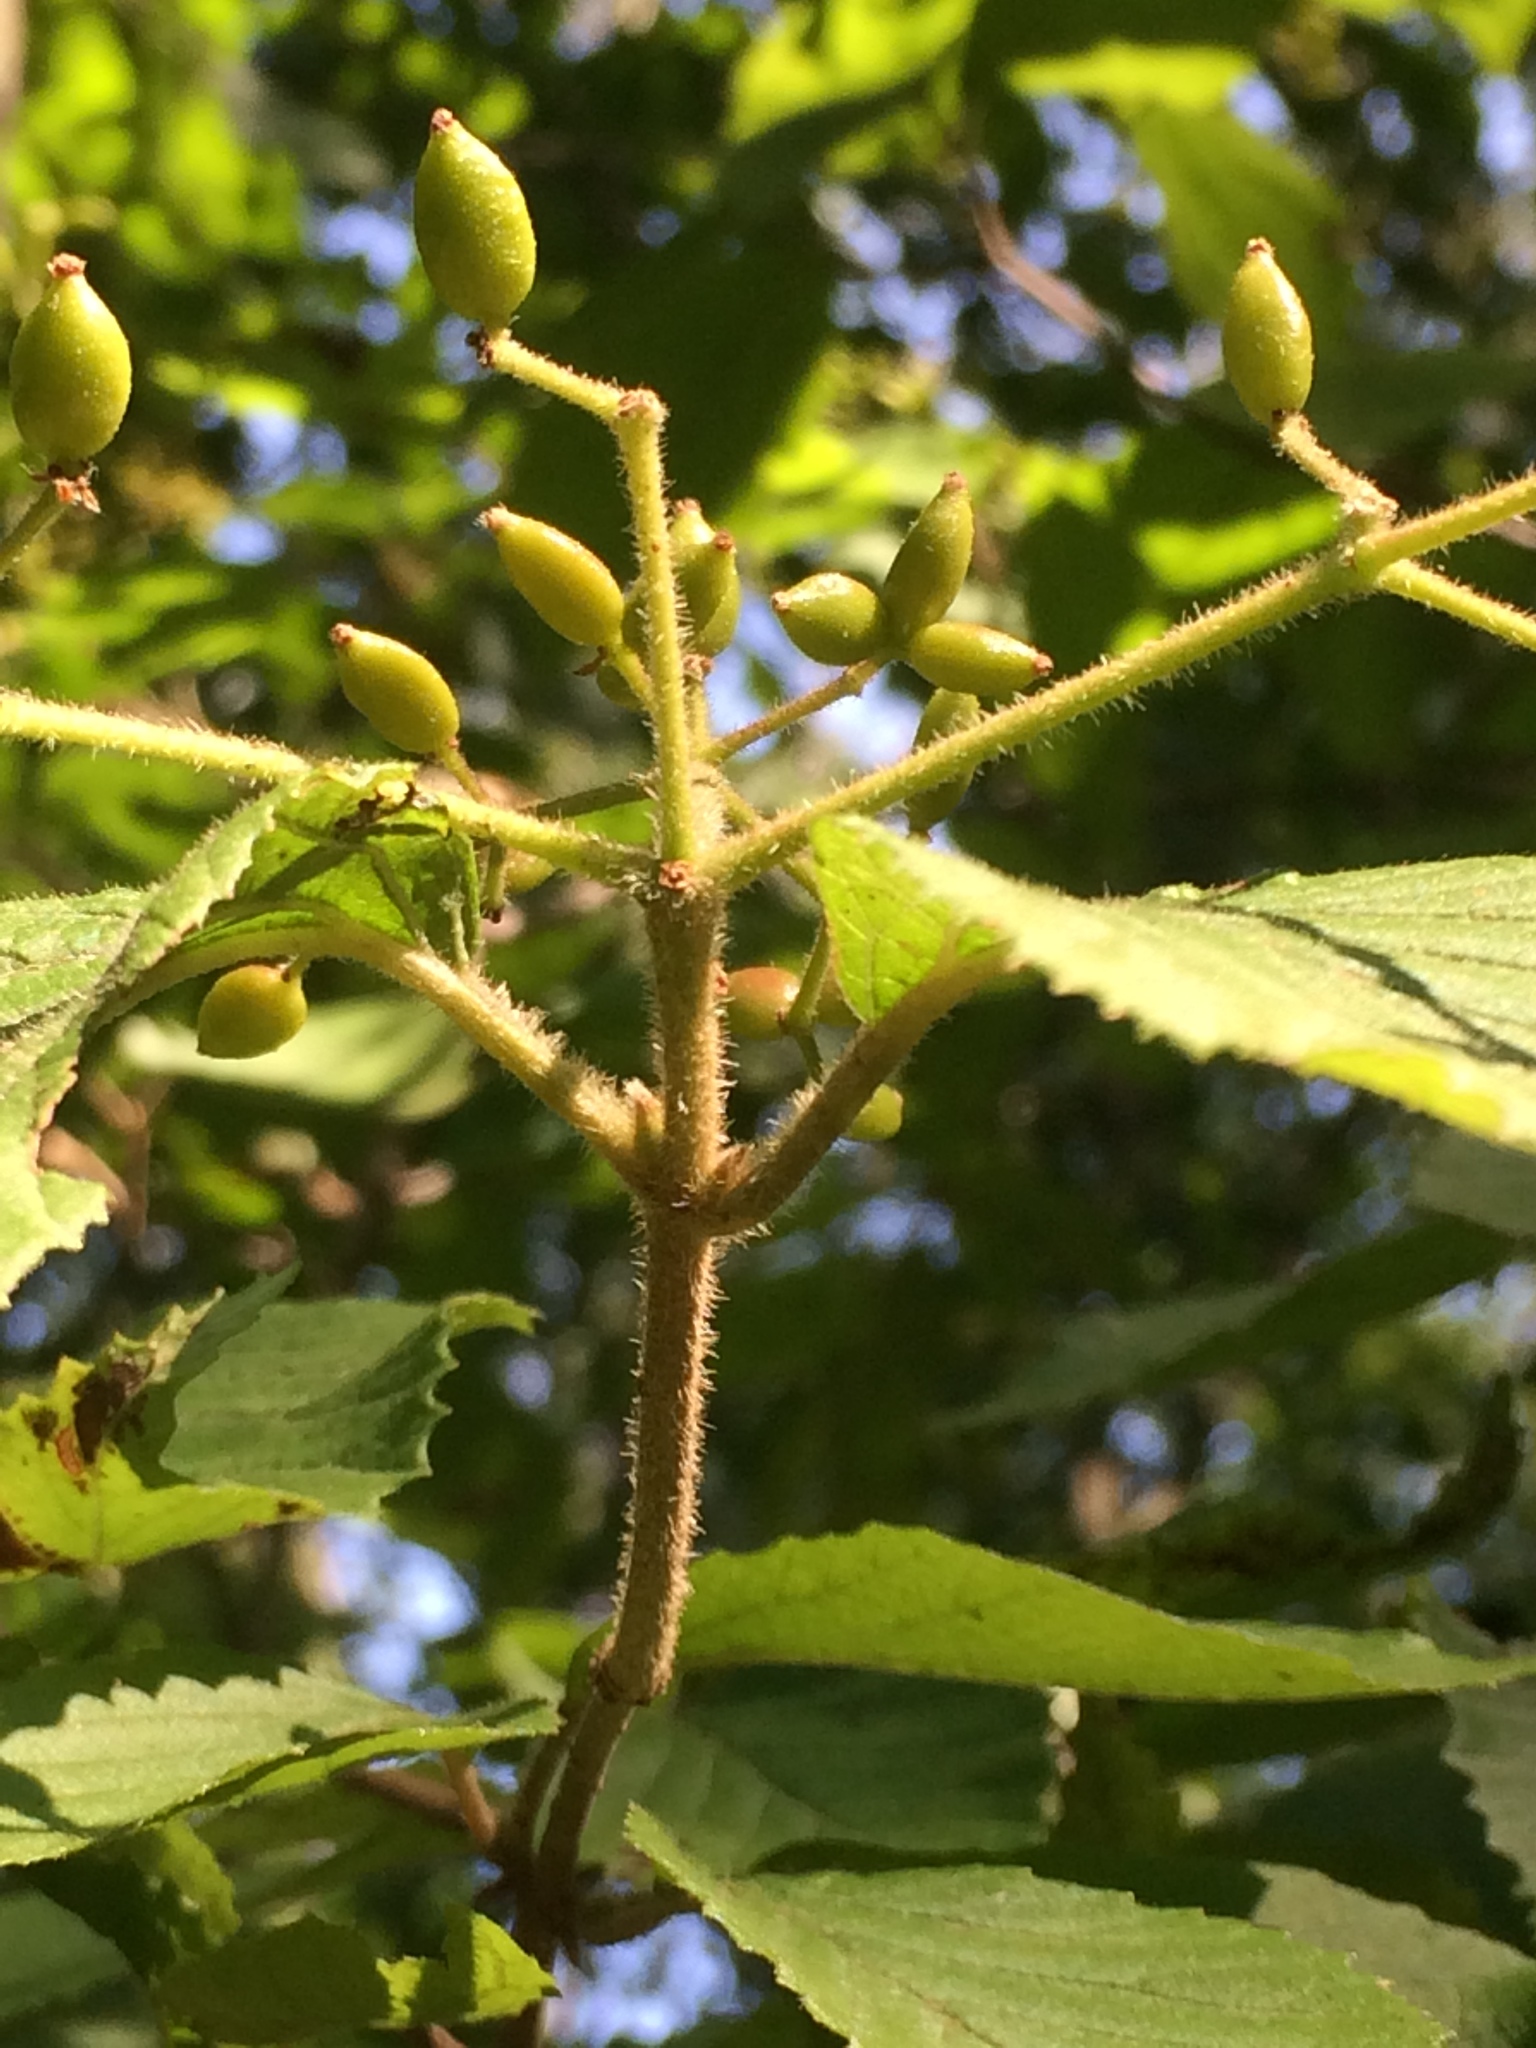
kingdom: Plantae
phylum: Tracheophyta
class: Magnoliopsida
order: Dipsacales
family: Viburnaceae
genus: Viburnum
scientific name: Viburnum dilatatum
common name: Linden arrowwood
